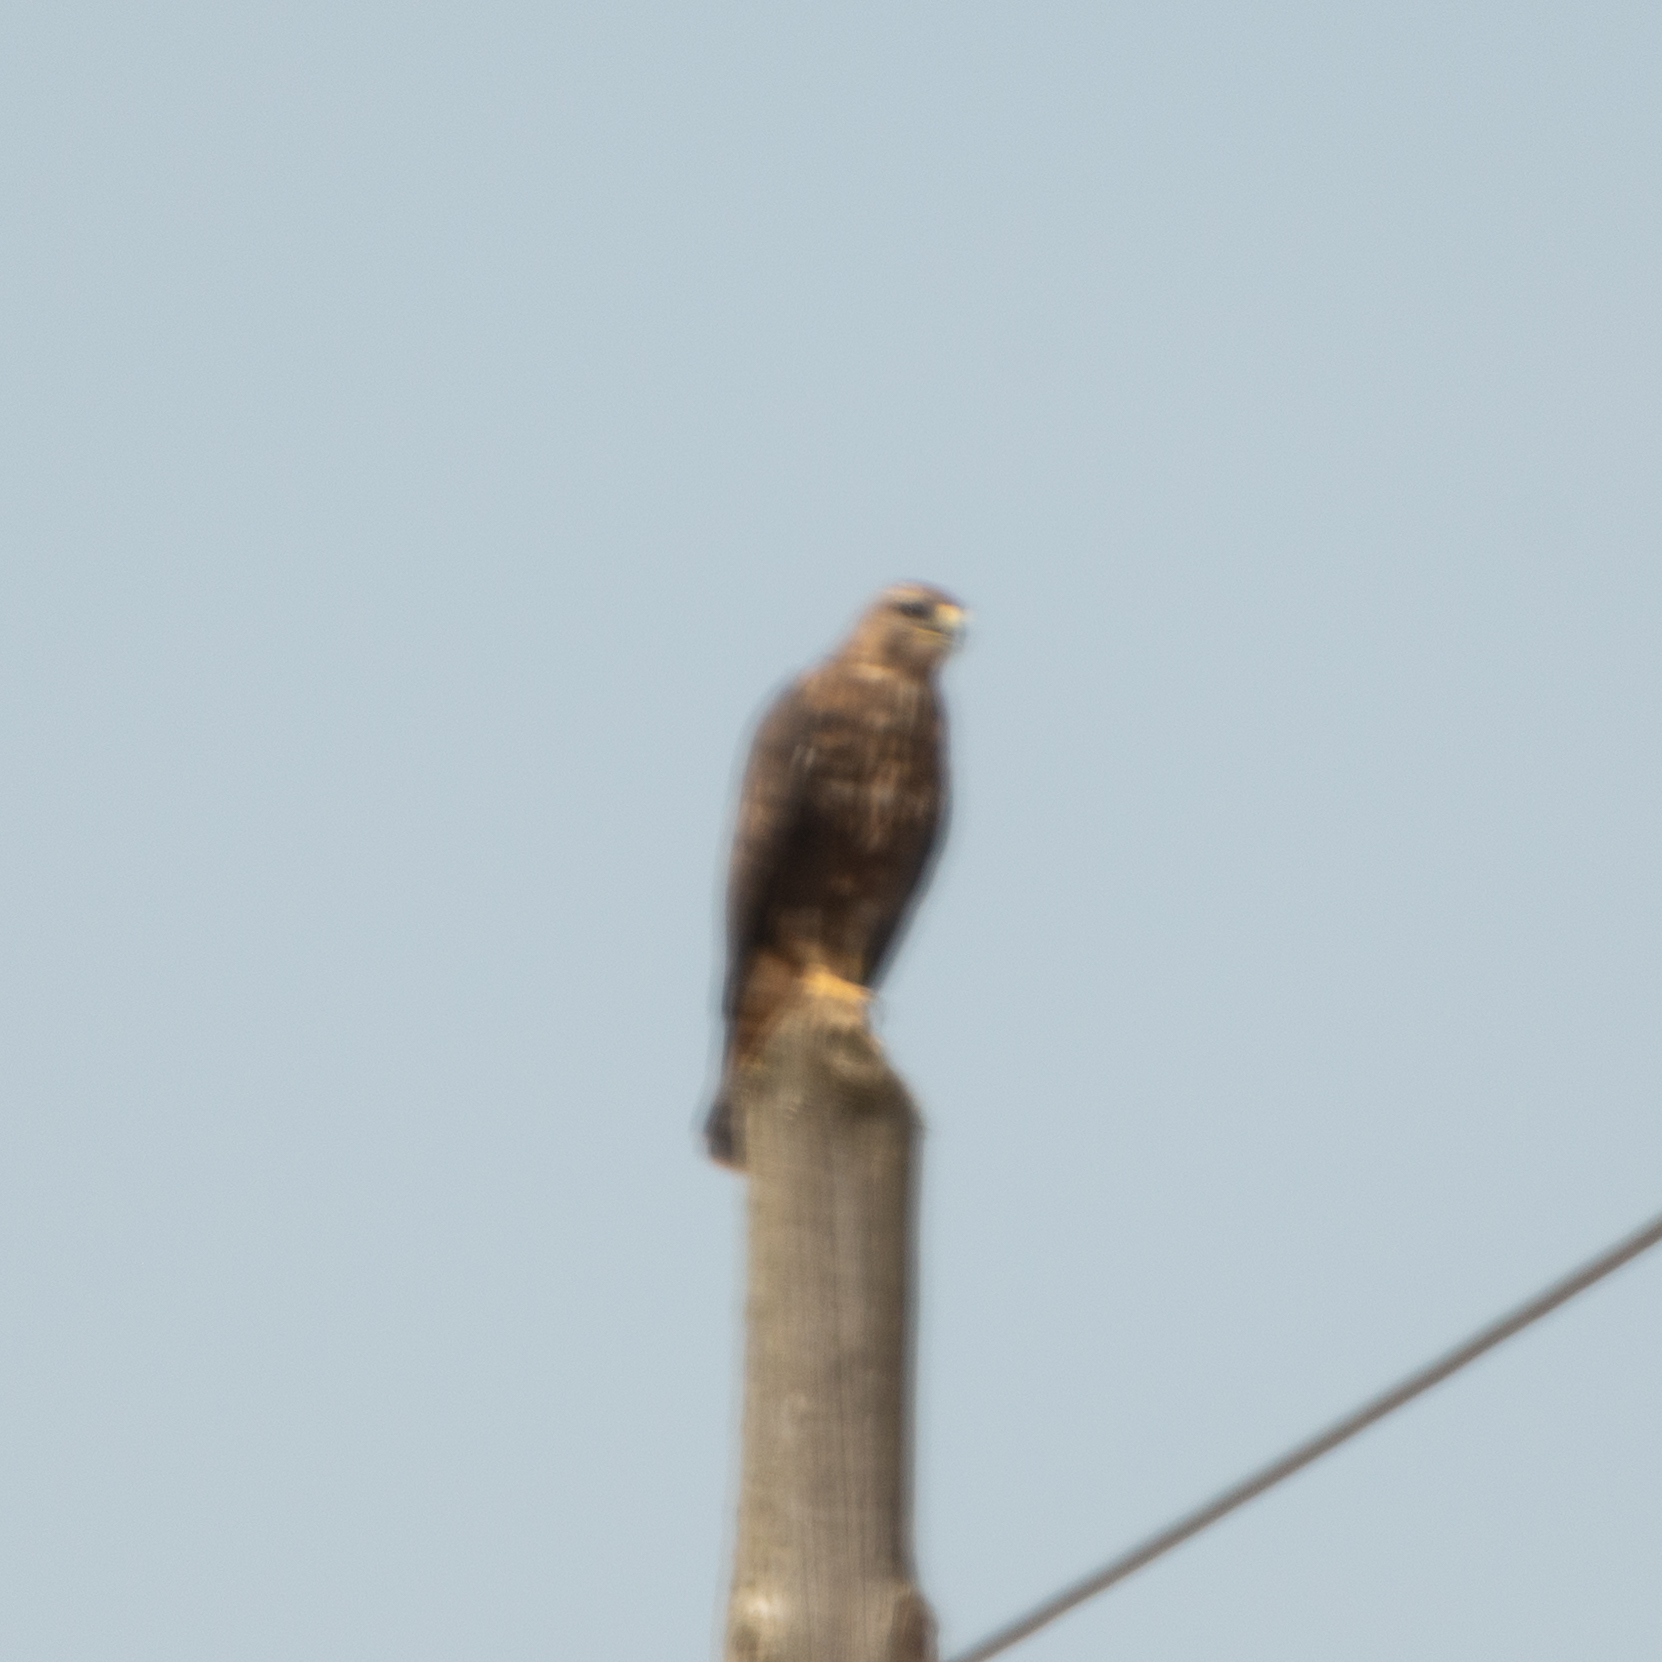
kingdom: Animalia
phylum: Chordata
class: Aves
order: Accipitriformes
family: Accipitridae
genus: Buteo
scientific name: Buteo buteo
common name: Common buzzard
